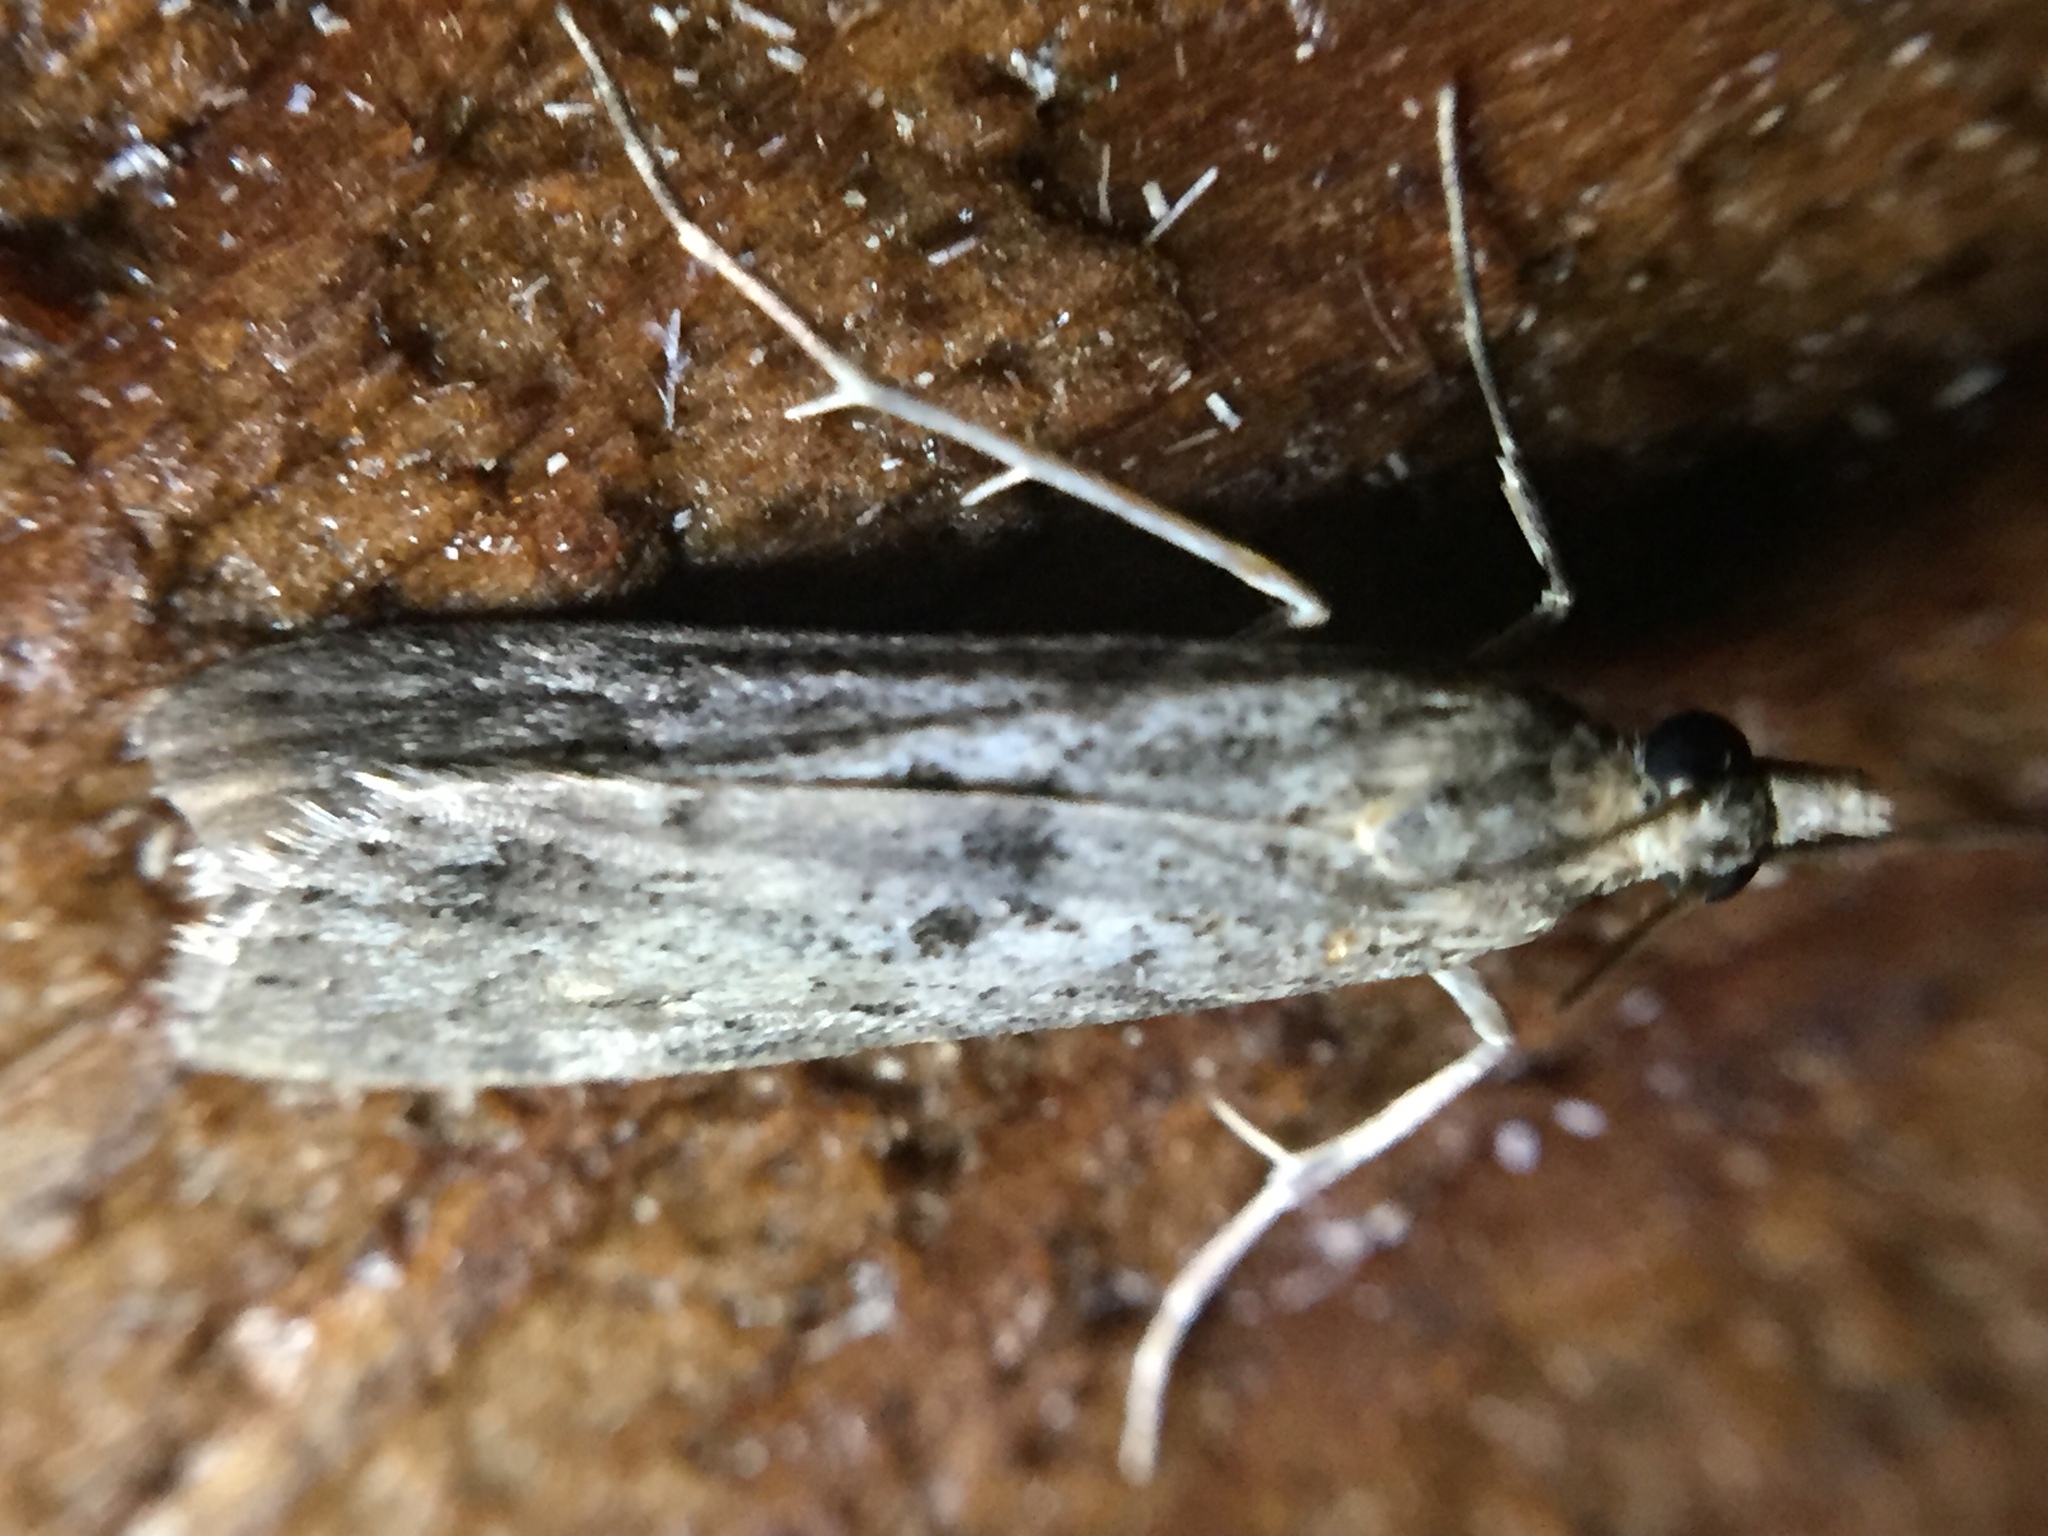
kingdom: Animalia
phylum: Arthropoda
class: Insecta
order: Lepidoptera
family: Crambidae
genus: Eudonia
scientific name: Eudonia leptalea
